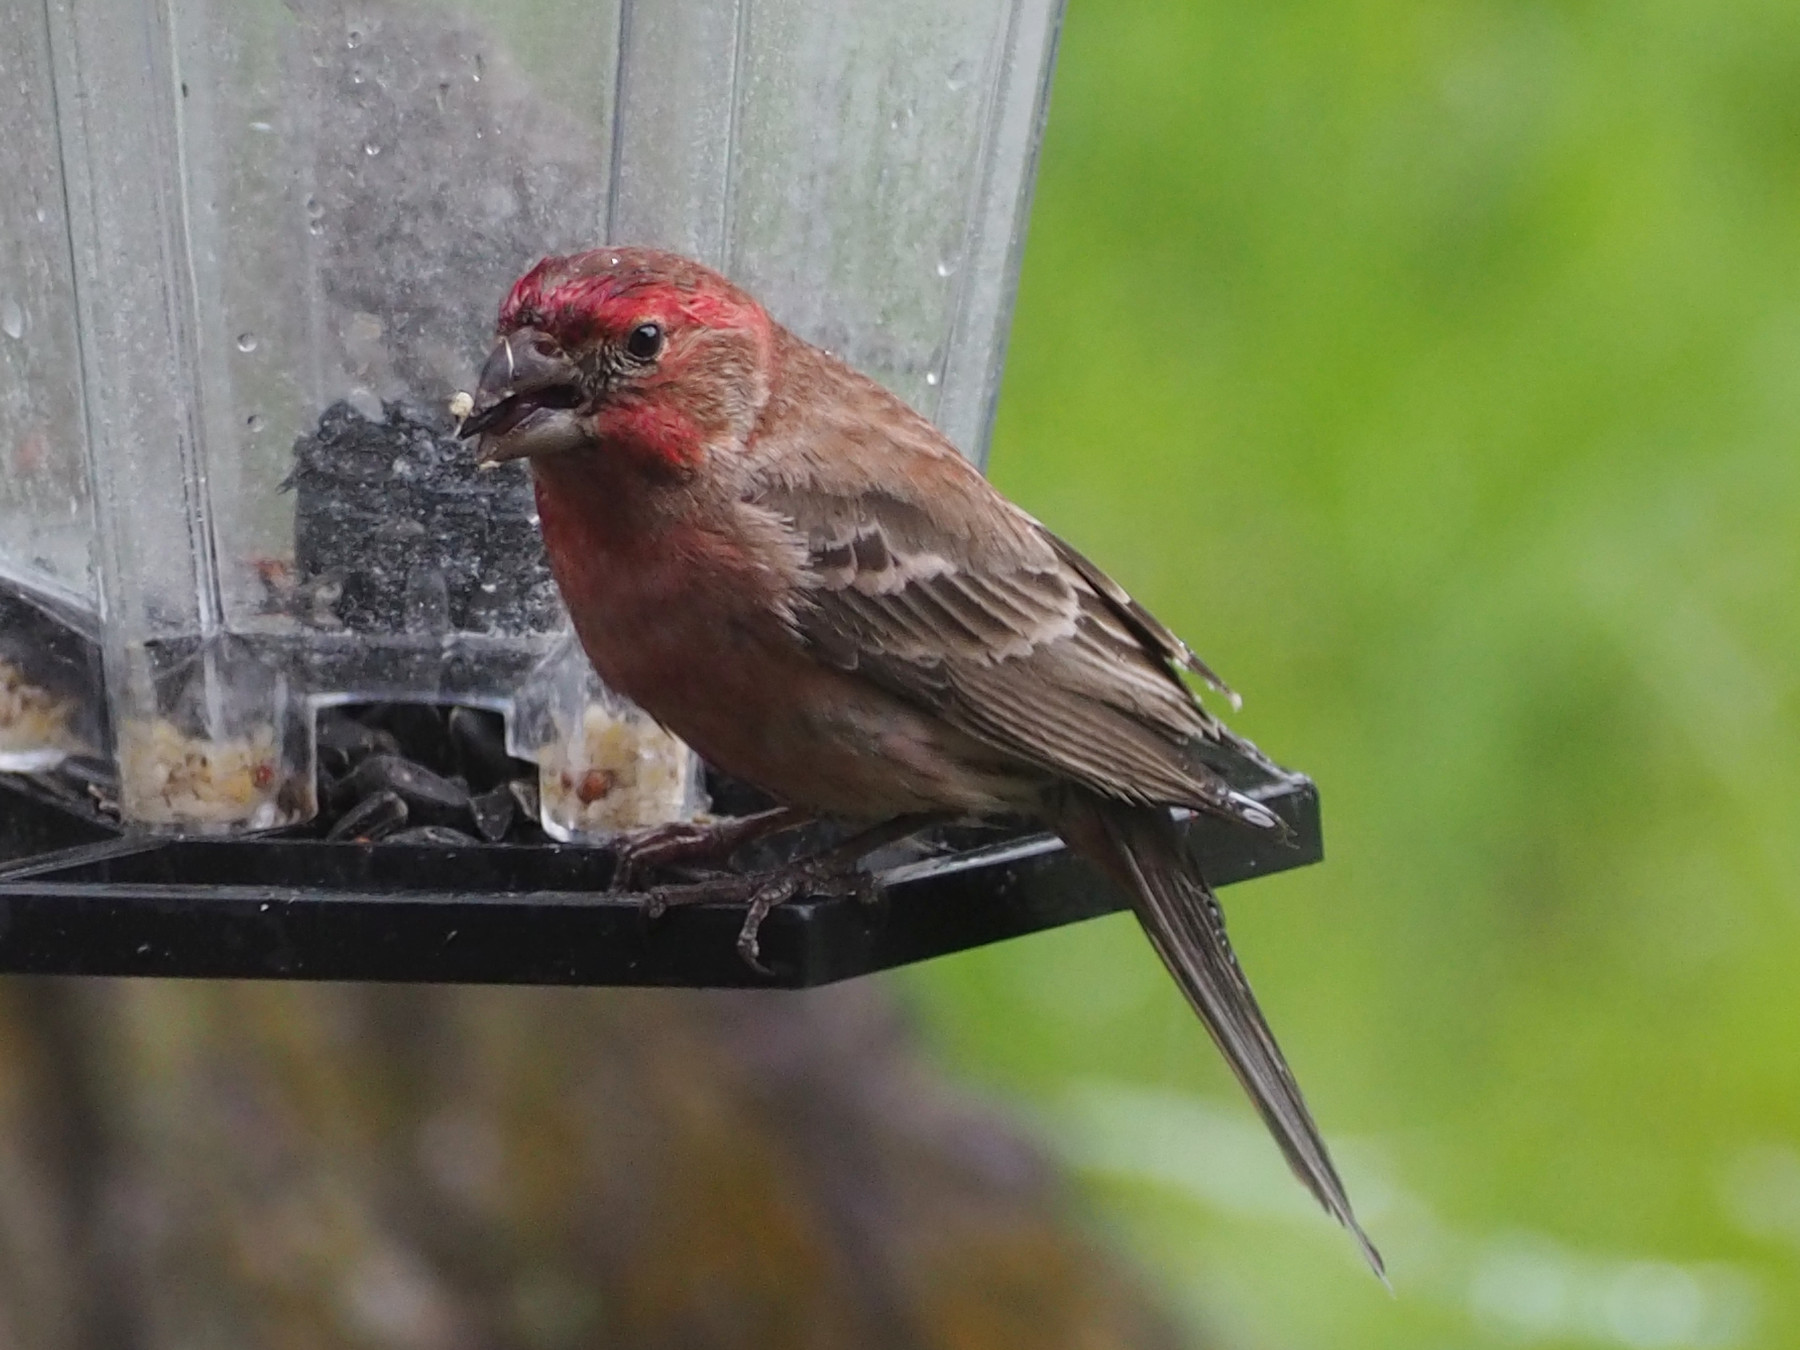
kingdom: Animalia
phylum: Chordata
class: Aves
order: Passeriformes
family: Fringillidae
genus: Haemorhous
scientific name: Haemorhous mexicanus
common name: House finch
